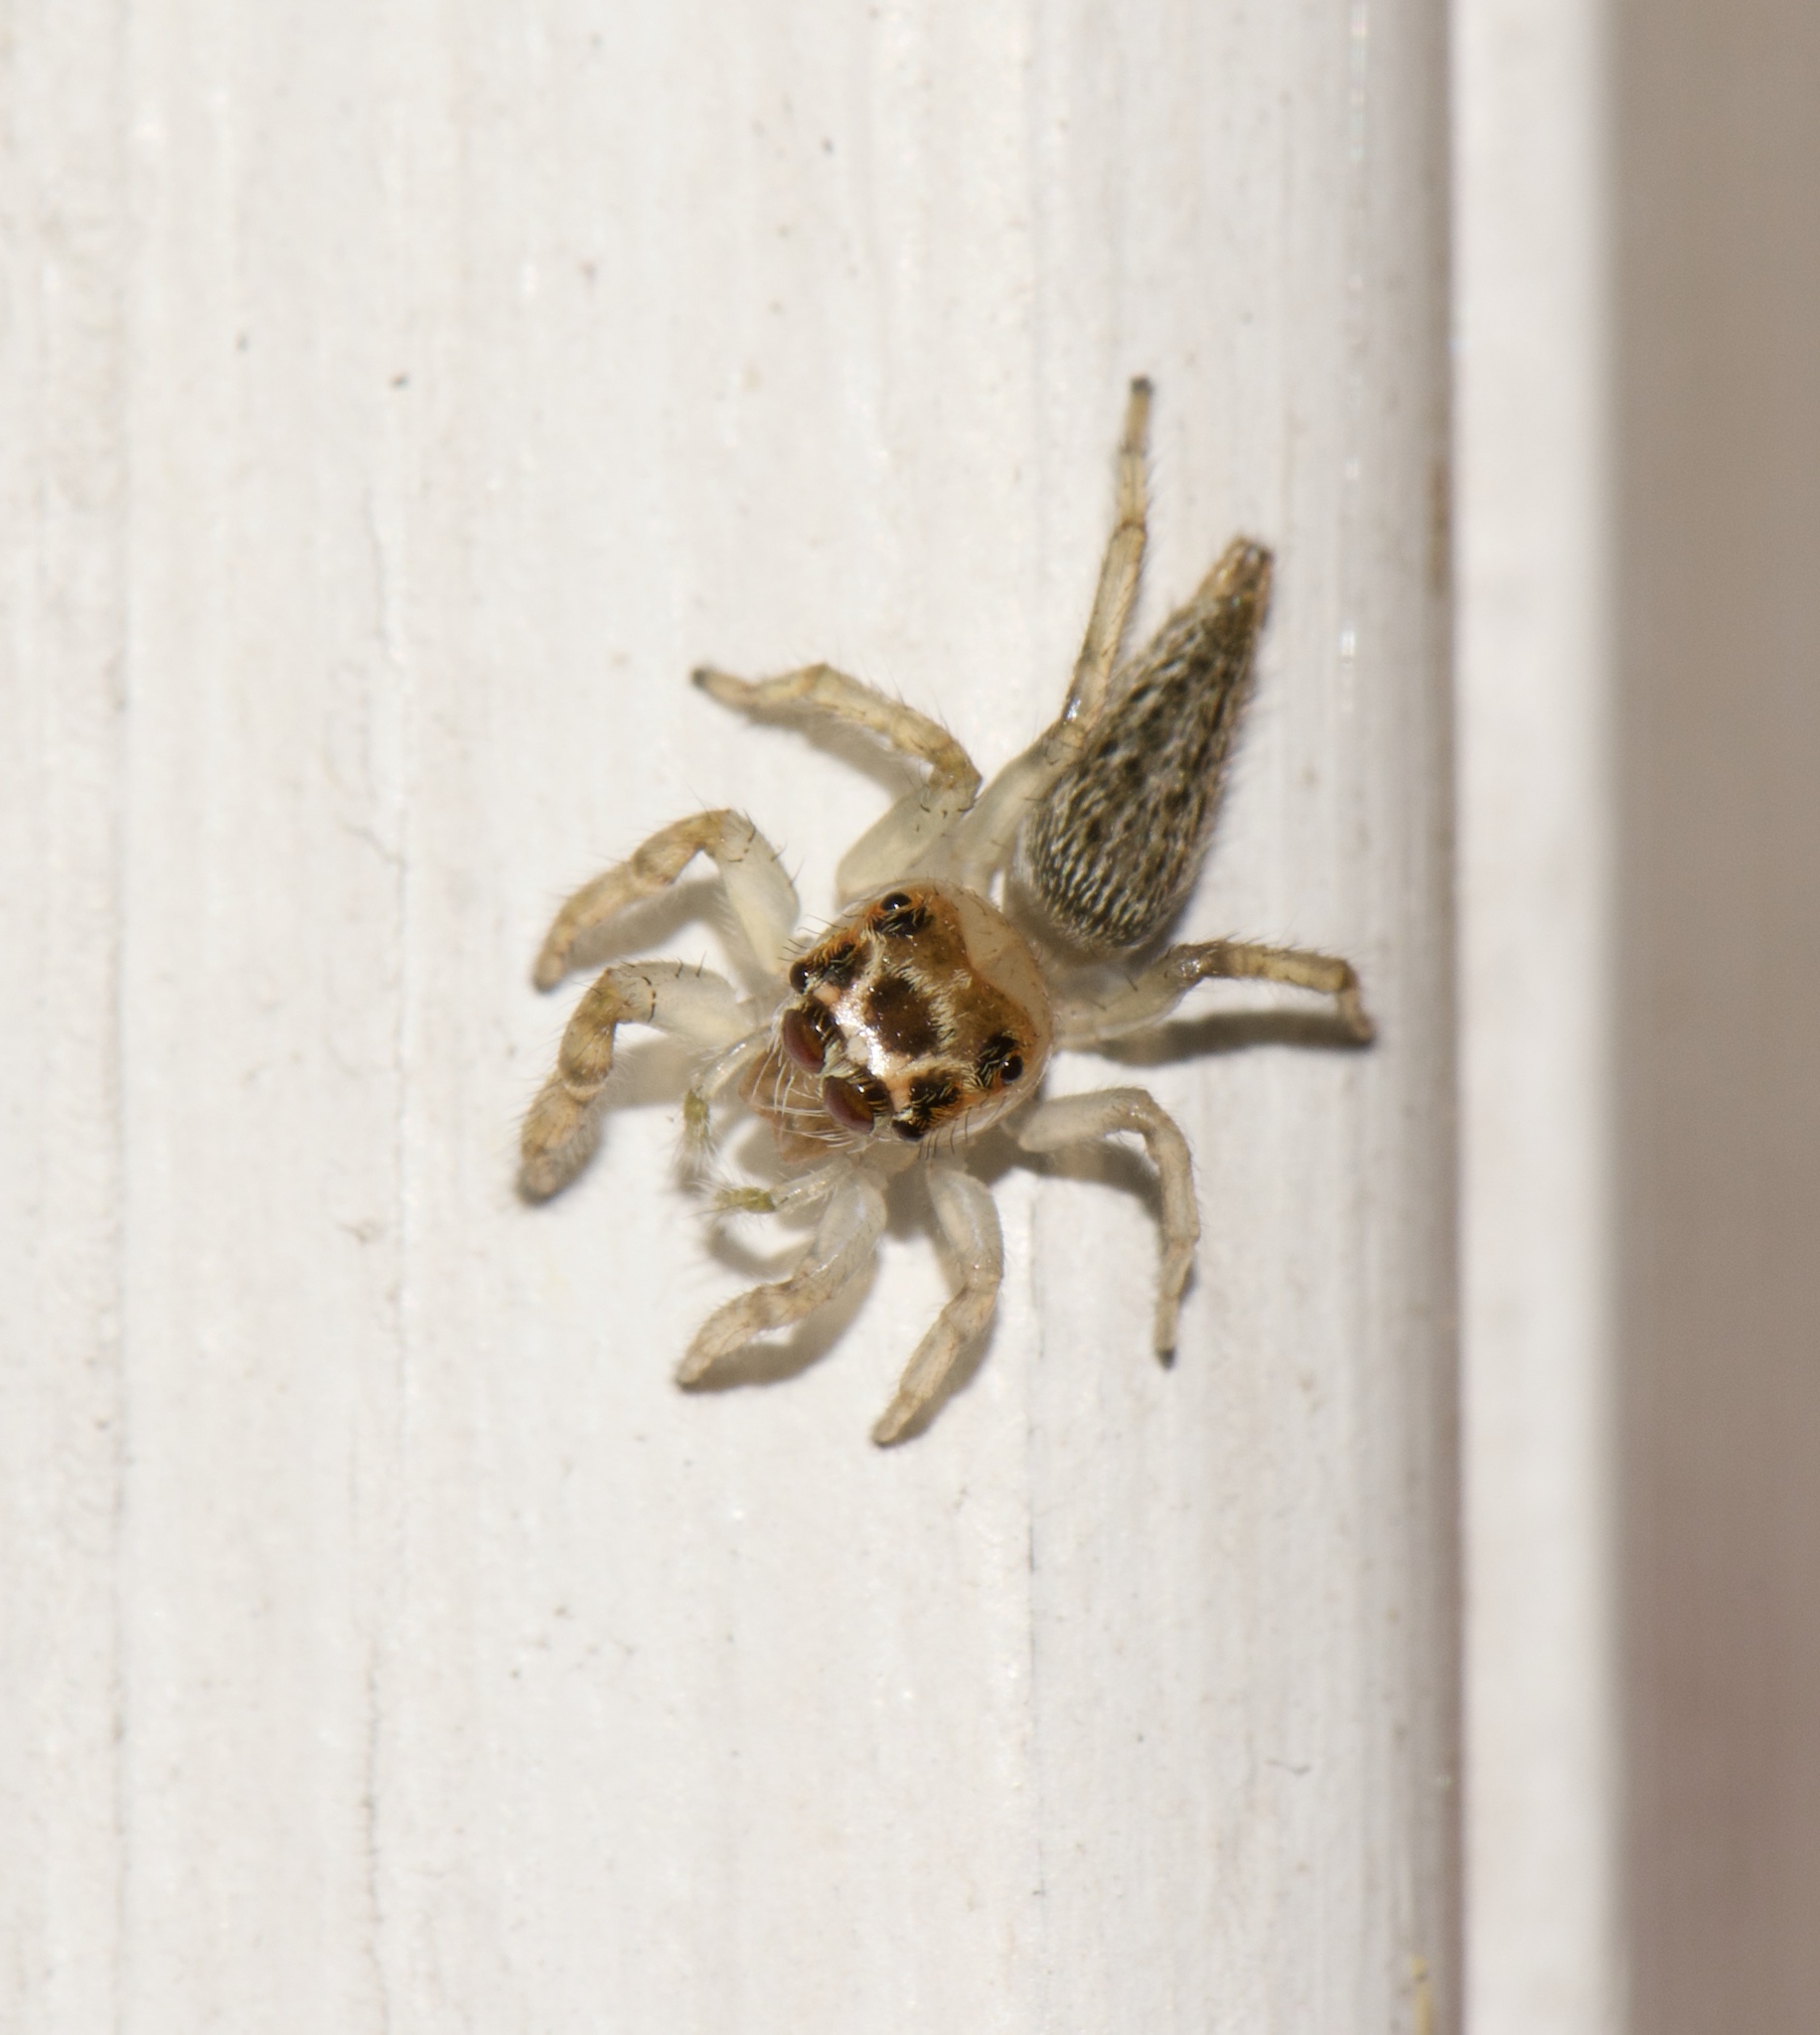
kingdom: Animalia
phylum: Arthropoda
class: Arachnida
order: Araneae
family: Salticidae
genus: Colonus
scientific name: Colonus sylvanus
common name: Jumping spiders
